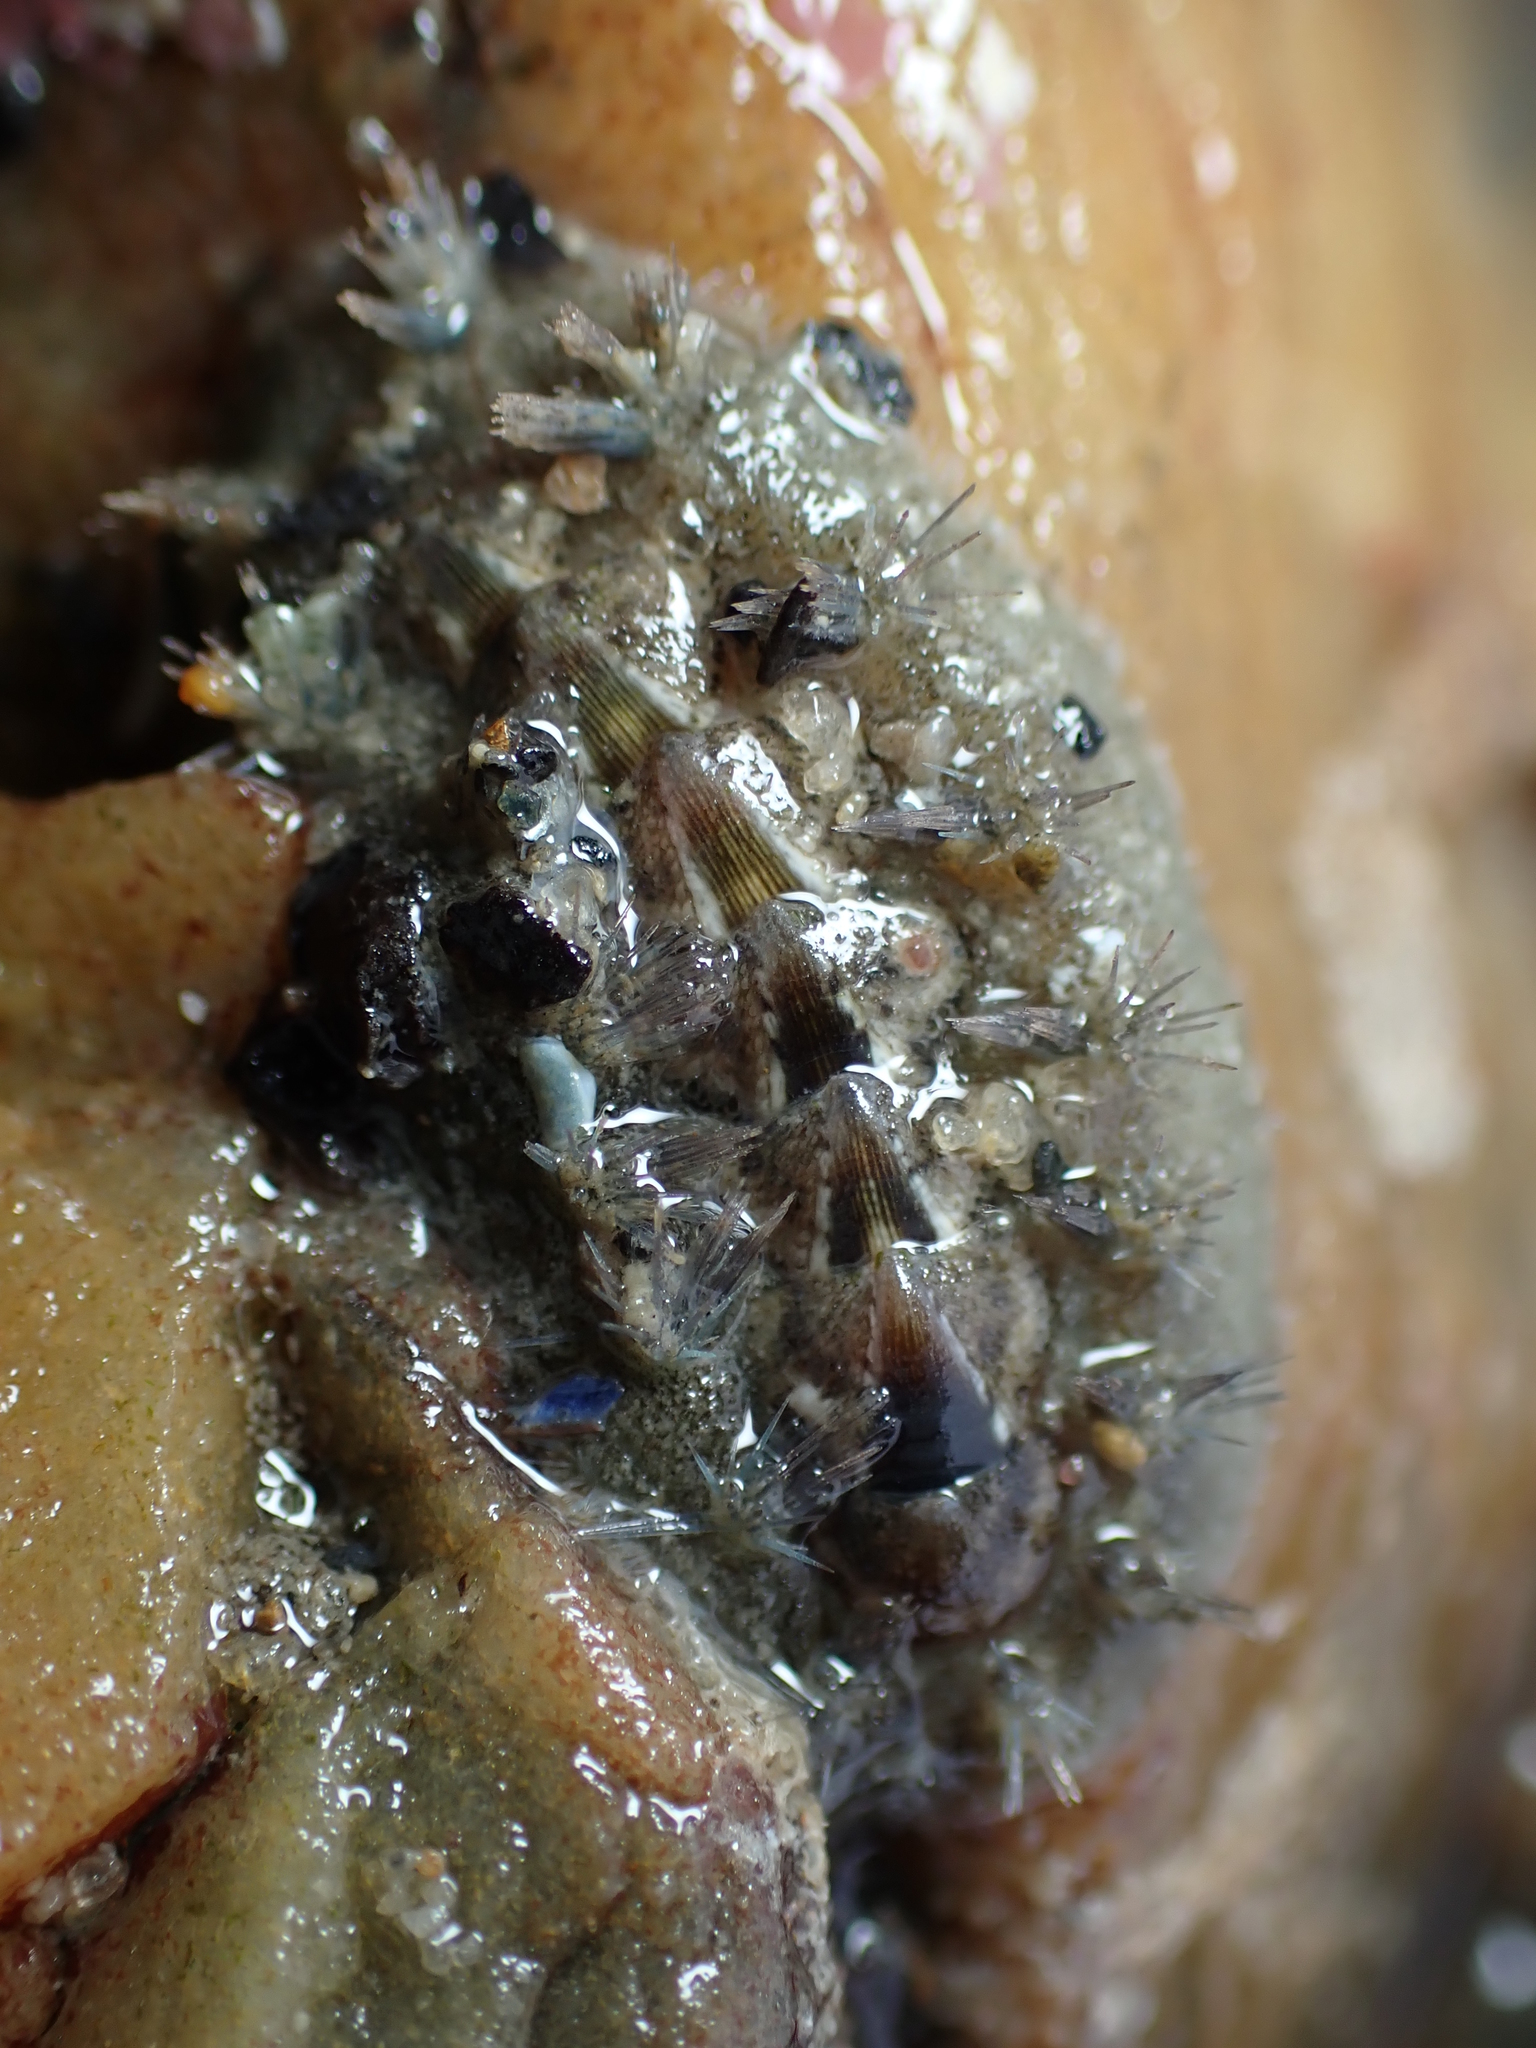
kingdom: Animalia
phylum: Mollusca
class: Polyplacophora
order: Chitonida
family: Acanthochitonidae
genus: Acanthochitona
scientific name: Acanthochitona zelandica
